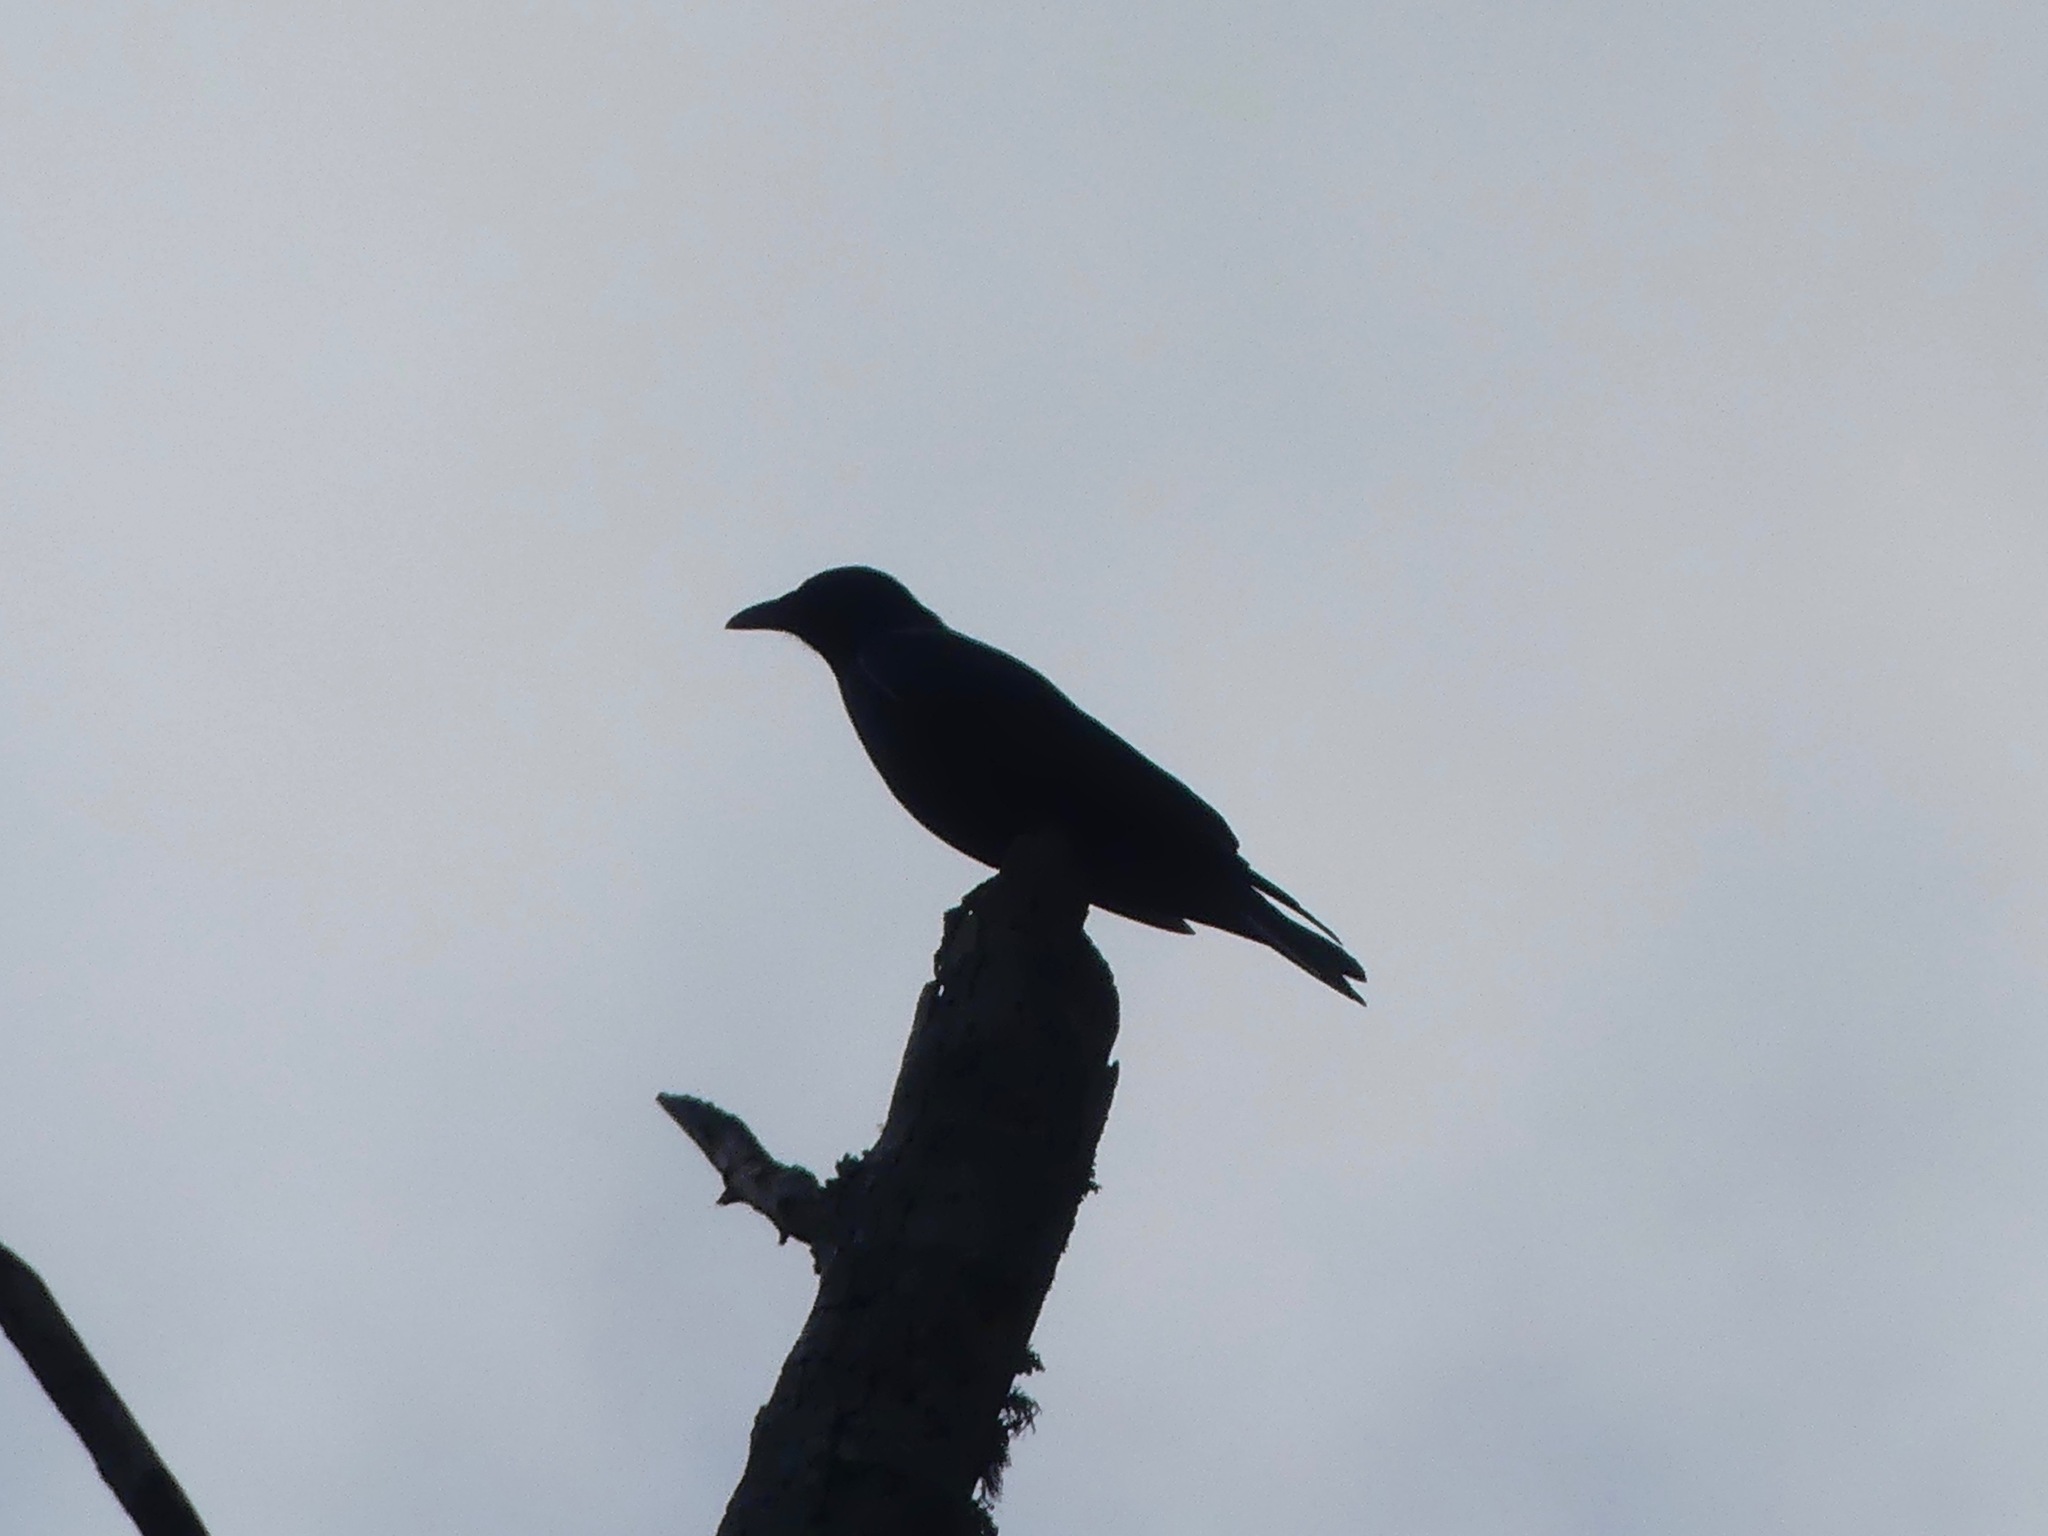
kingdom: Animalia
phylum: Chordata
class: Aves
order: Passeriformes
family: Corvidae
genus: Corvus
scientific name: Corvus ossifragus
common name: Fish crow
